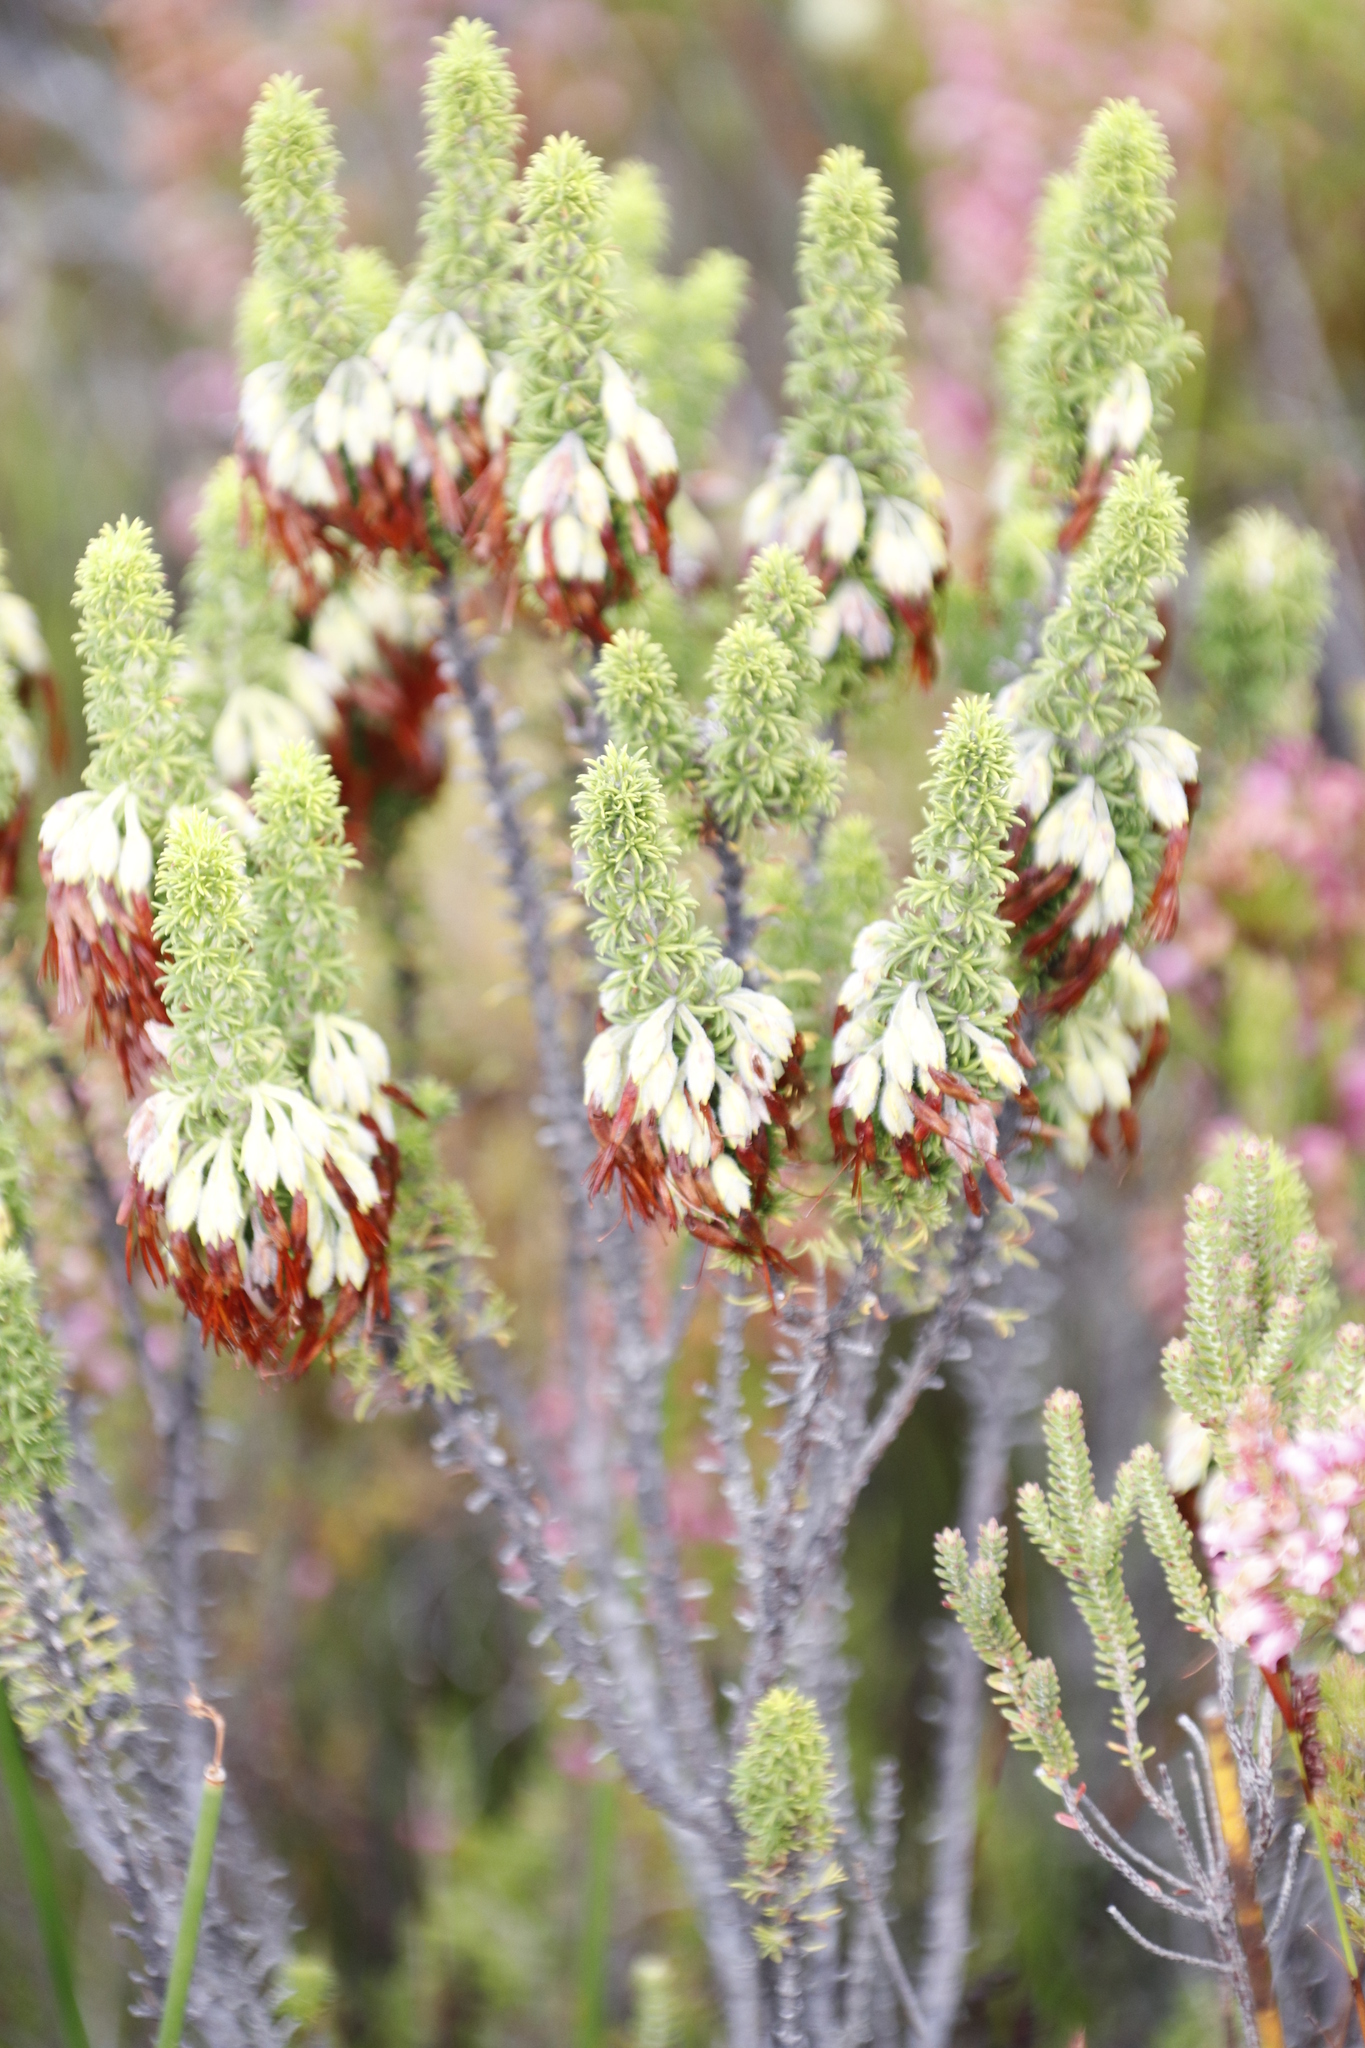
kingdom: Plantae
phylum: Tracheophyta
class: Magnoliopsida
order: Ericales
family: Ericaceae
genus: Erica
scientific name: Erica coccinea
